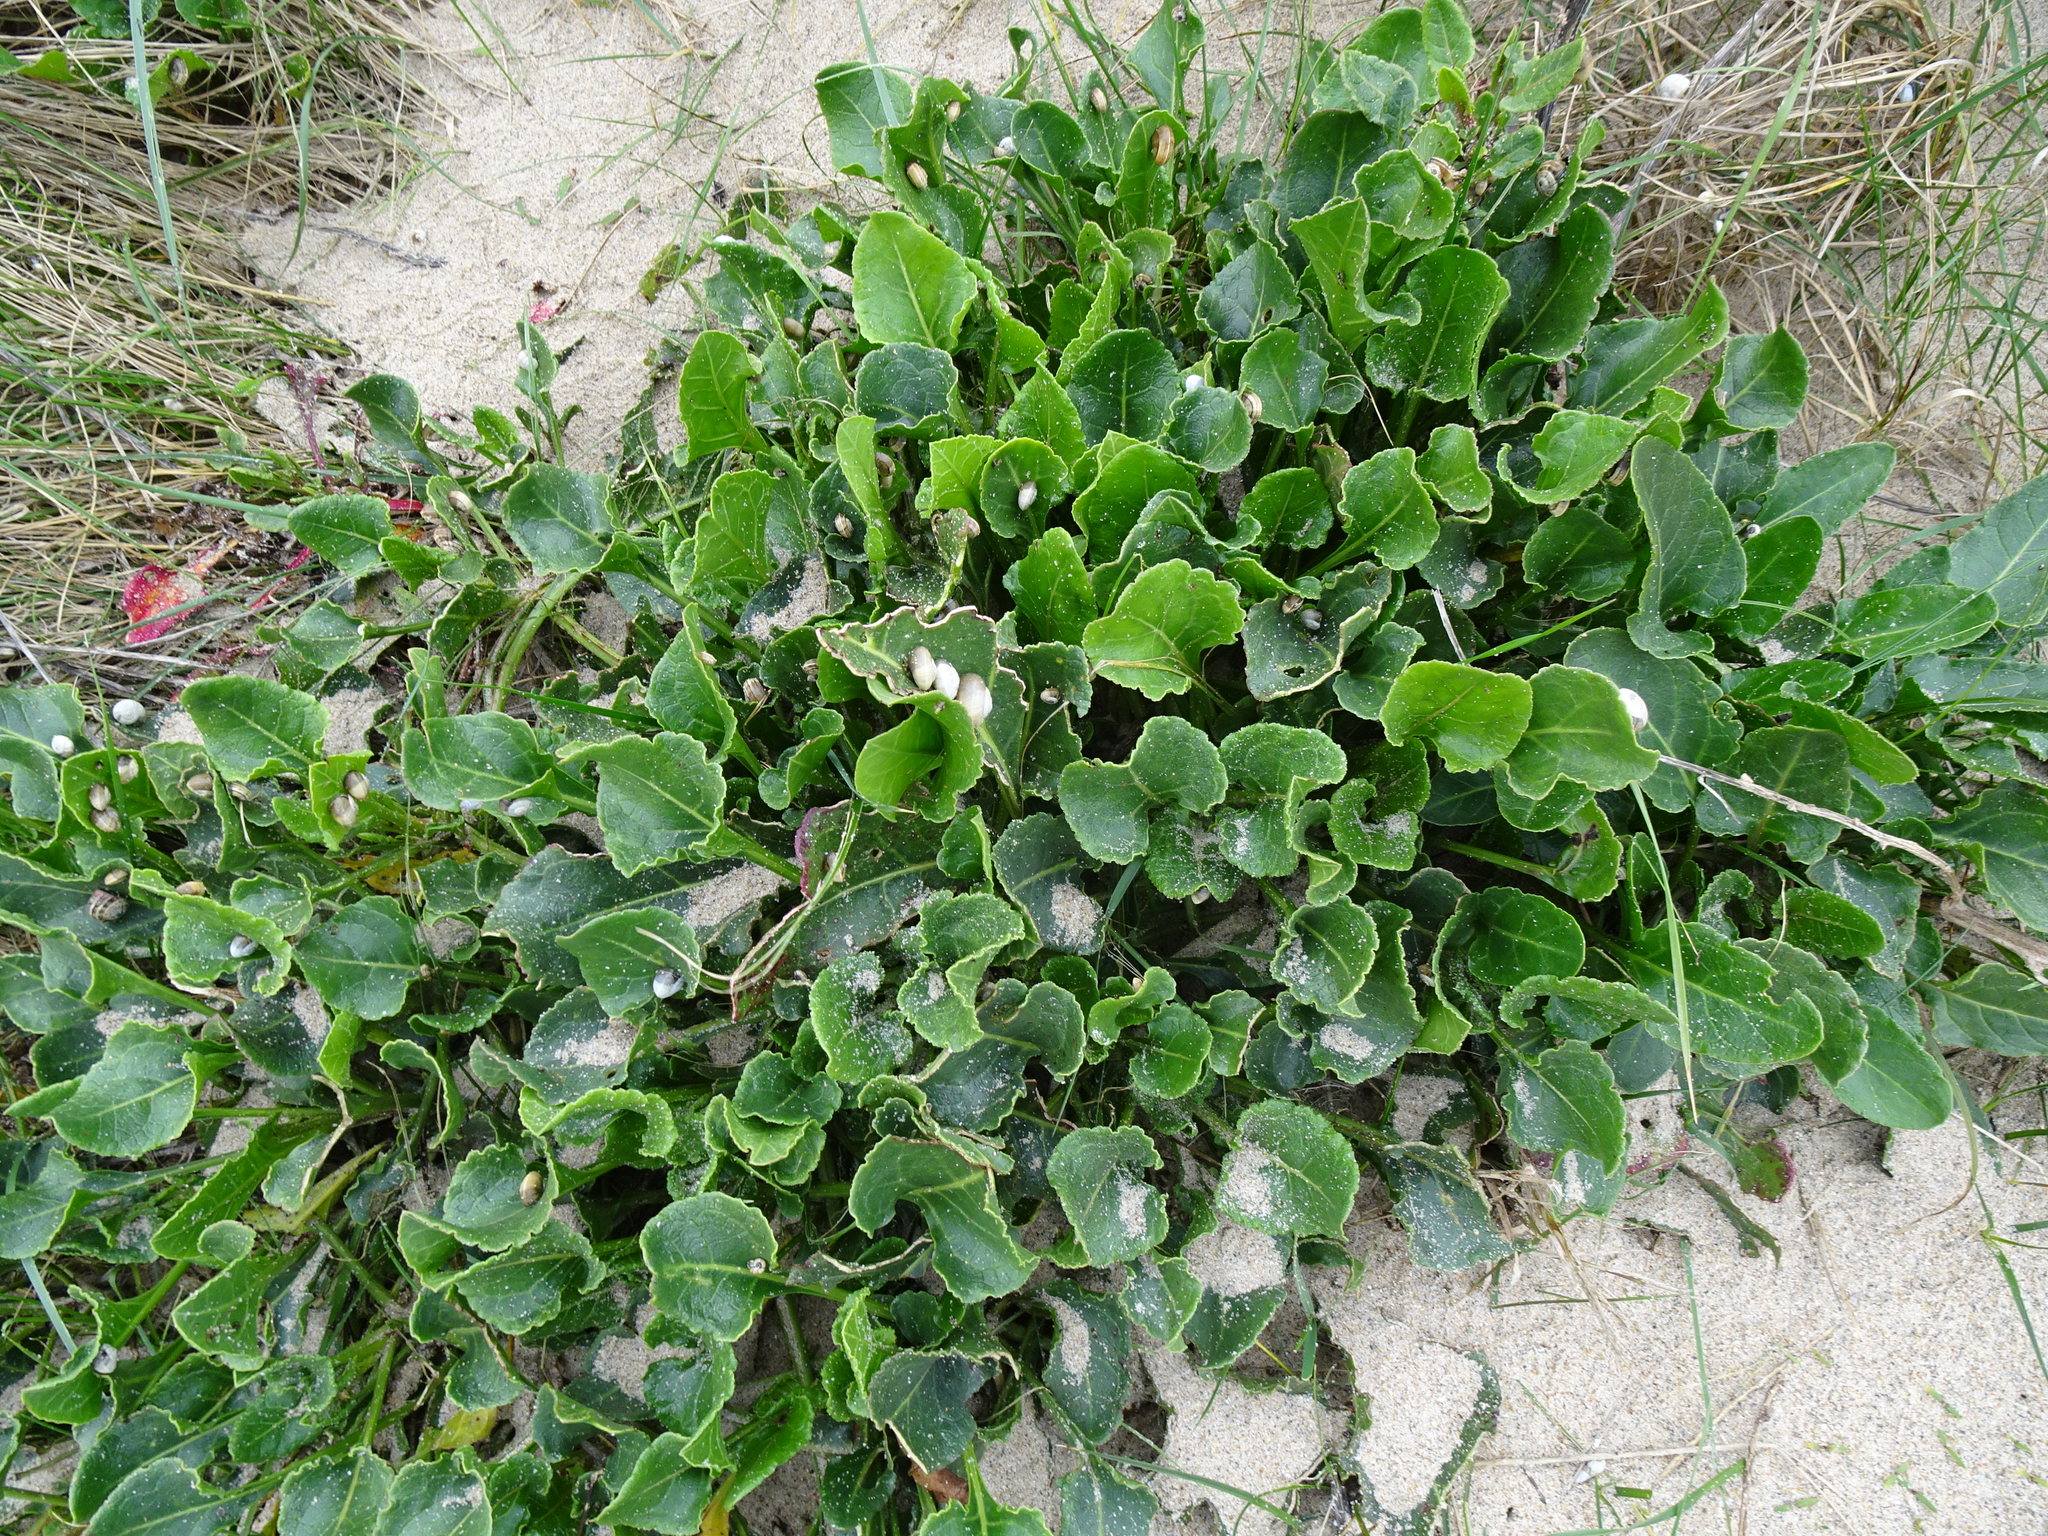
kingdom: Plantae
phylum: Tracheophyta
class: Magnoliopsida
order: Caryophyllales
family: Amaranthaceae
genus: Beta
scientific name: Beta vulgaris
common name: Beet
